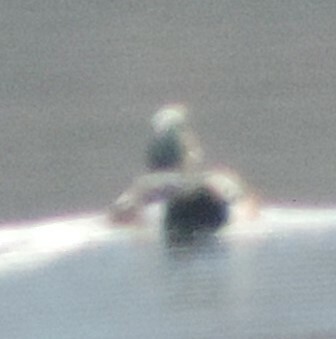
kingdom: Animalia
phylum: Chordata
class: Aves
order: Anseriformes
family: Anatidae
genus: Mareca
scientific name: Mareca americana
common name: American wigeon
